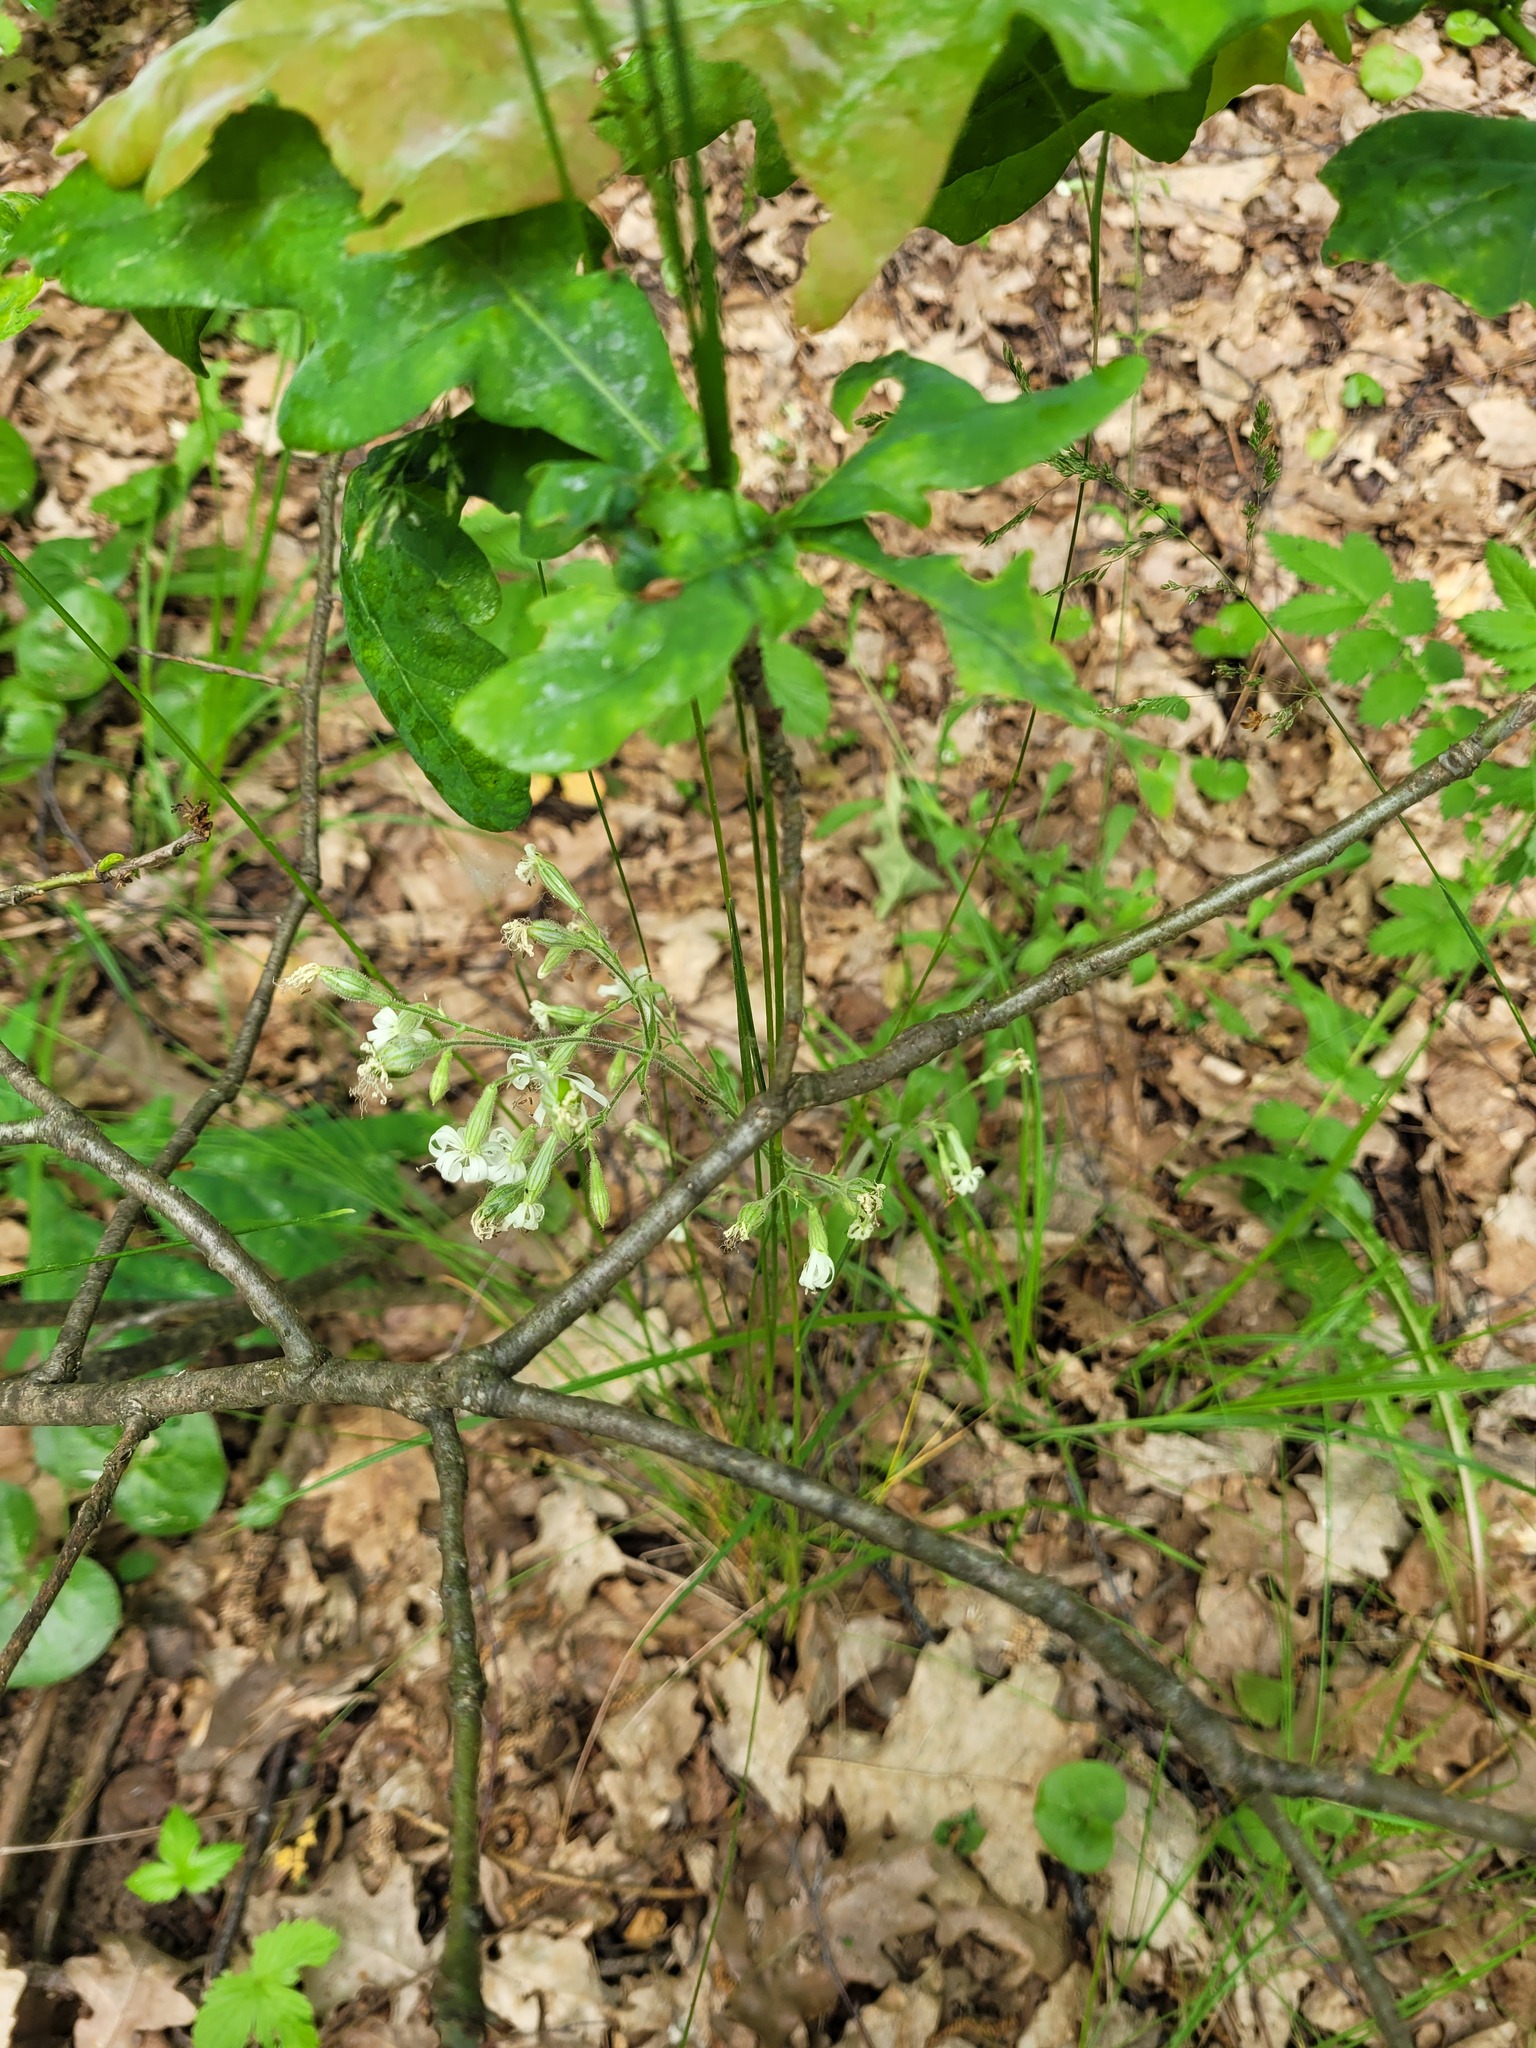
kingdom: Plantae
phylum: Tracheophyta
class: Magnoliopsida
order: Caryophyllales
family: Caryophyllaceae
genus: Silene
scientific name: Silene nutans
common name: Nottingham catchfly
